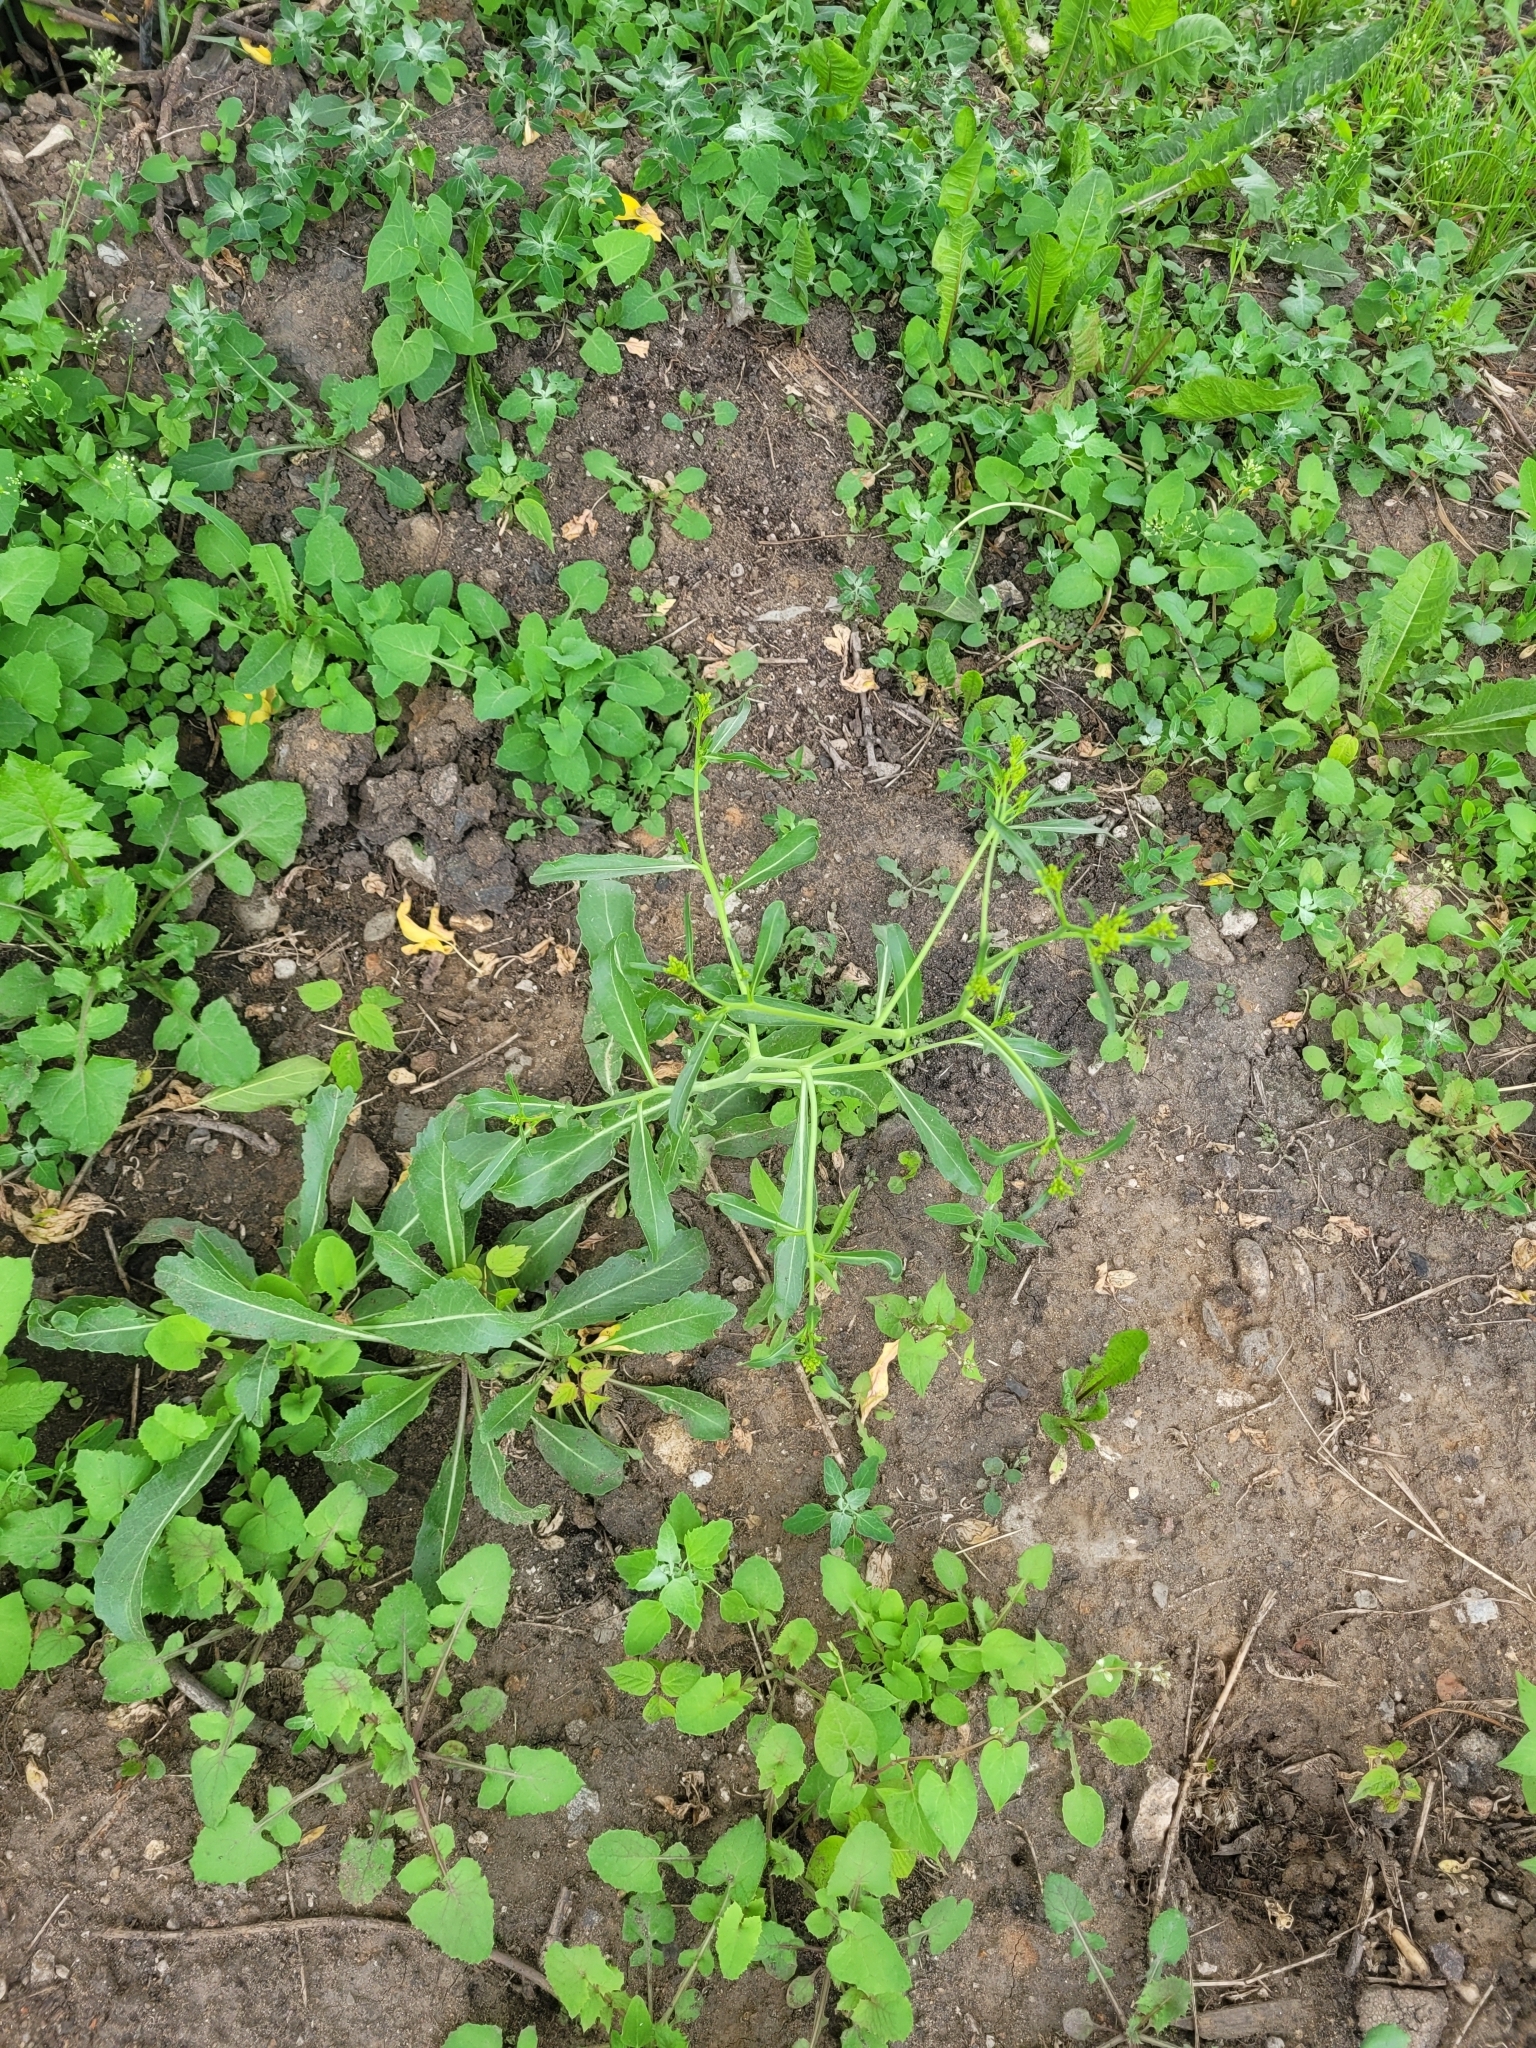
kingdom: Plantae
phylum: Tracheophyta
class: Magnoliopsida
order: Brassicales
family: Brassicaceae
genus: Brassica
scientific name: Brassica elongata
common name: Long-stalked rape
